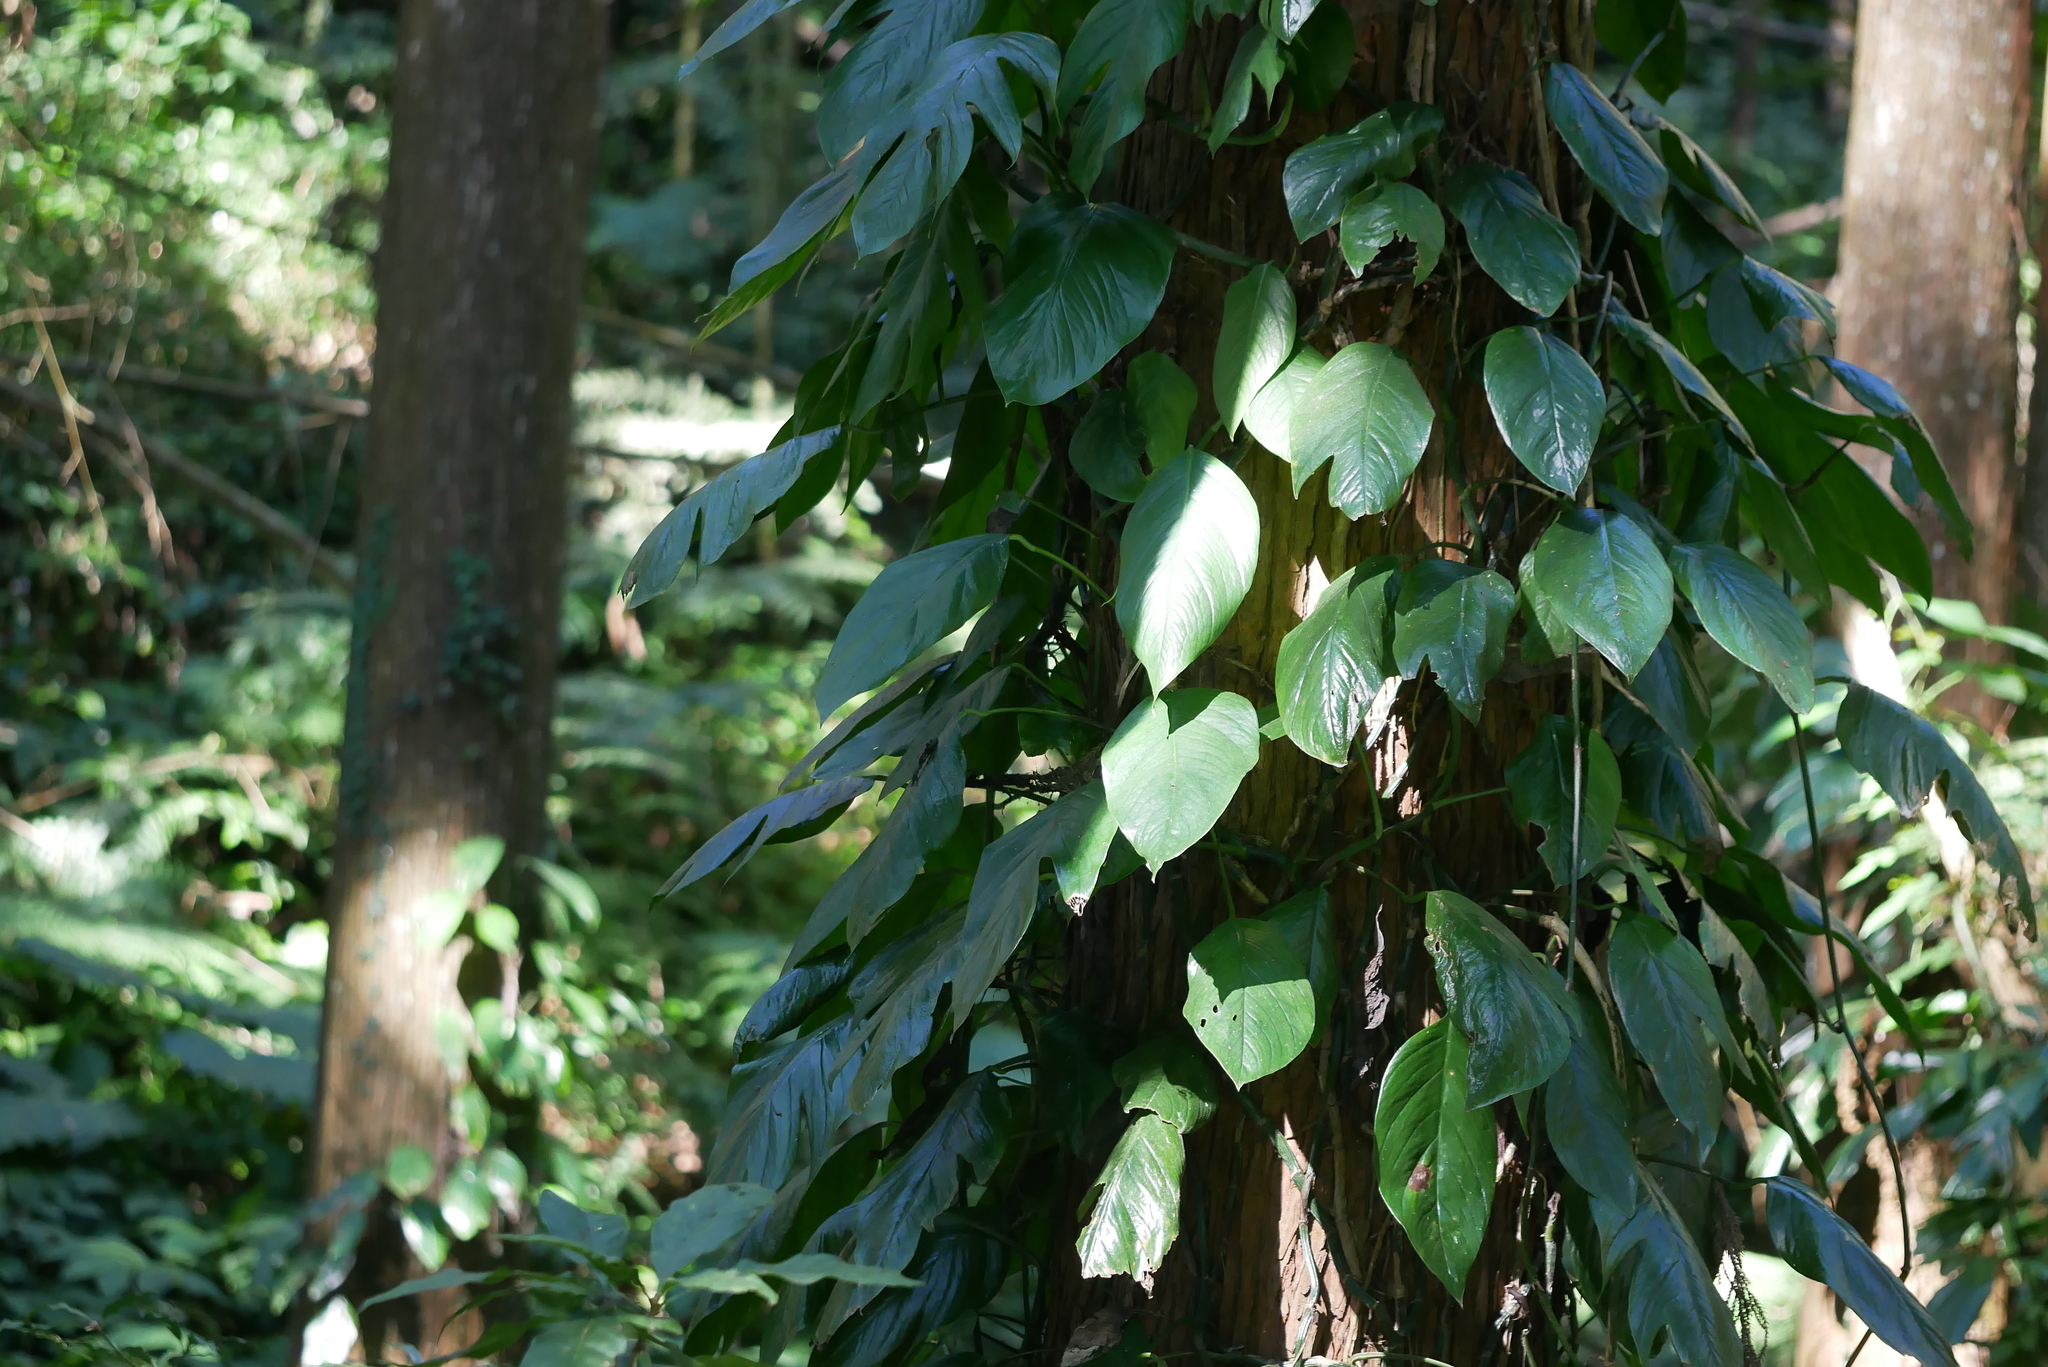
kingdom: Plantae
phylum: Tracheophyta
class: Liliopsida
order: Alismatales
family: Araceae
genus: Epipremnum
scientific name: Epipremnum pinnatum
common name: Centipede tongavine
